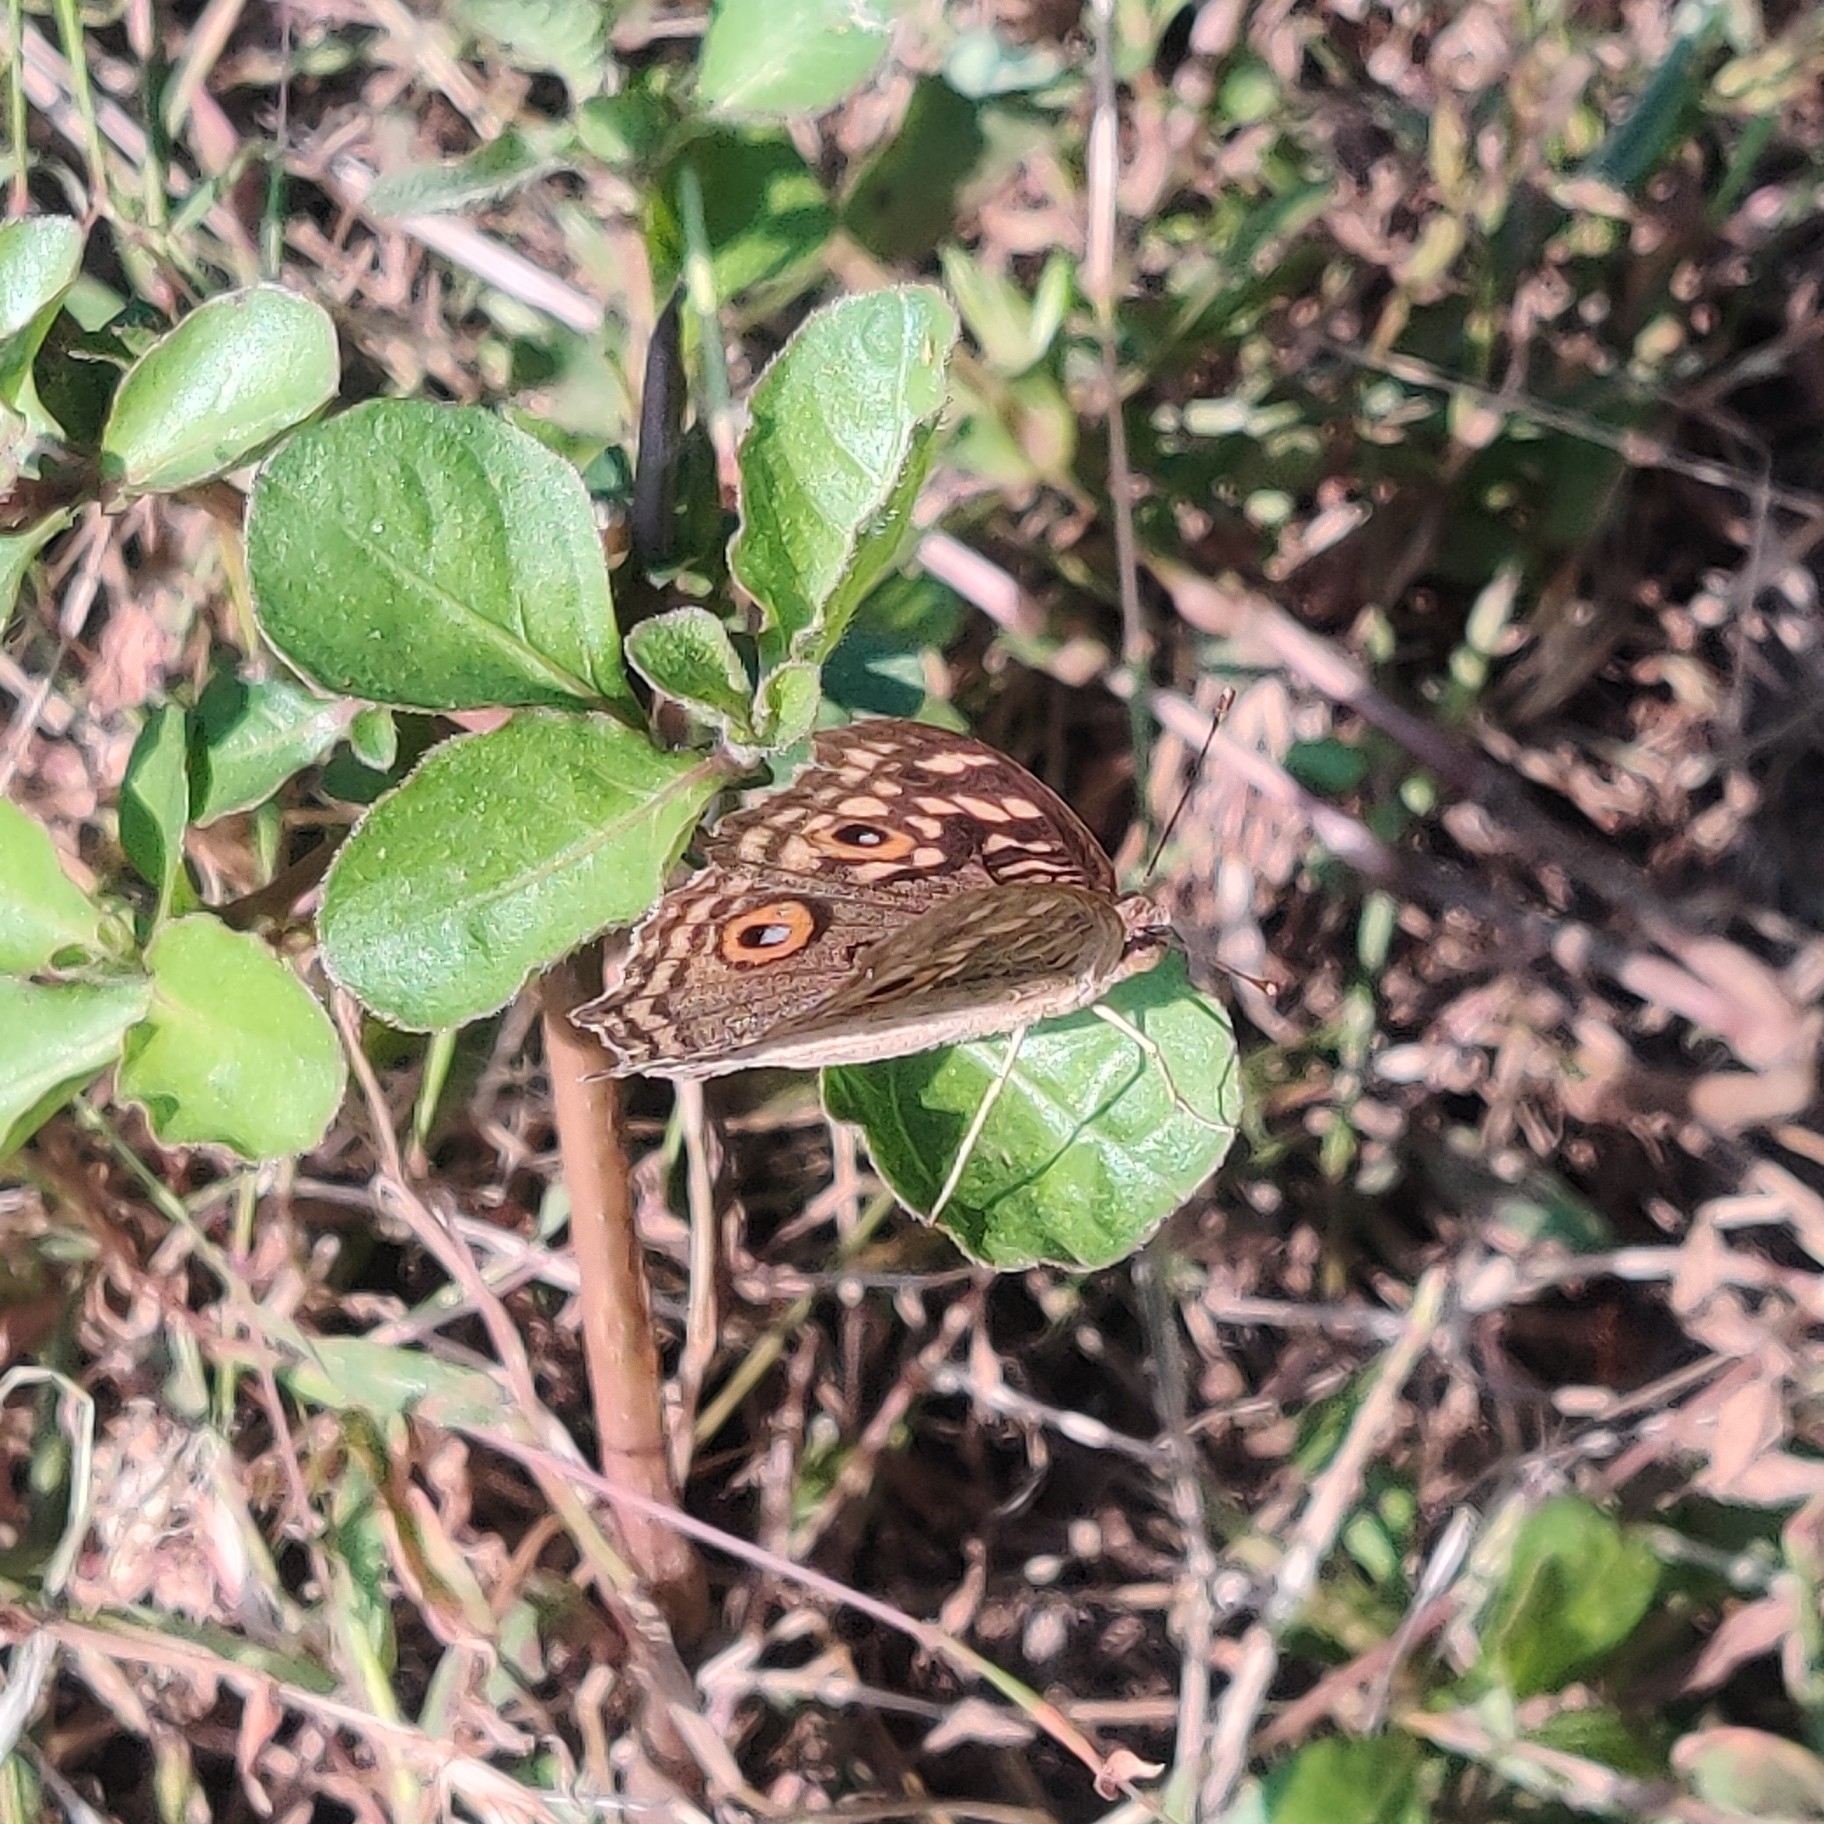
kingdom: Animalia
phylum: Arthropoda
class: Insecta
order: Lepidoptera
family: Nymphalidae
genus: Junonia
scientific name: Junonia lemonias
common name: Lemon pansy
